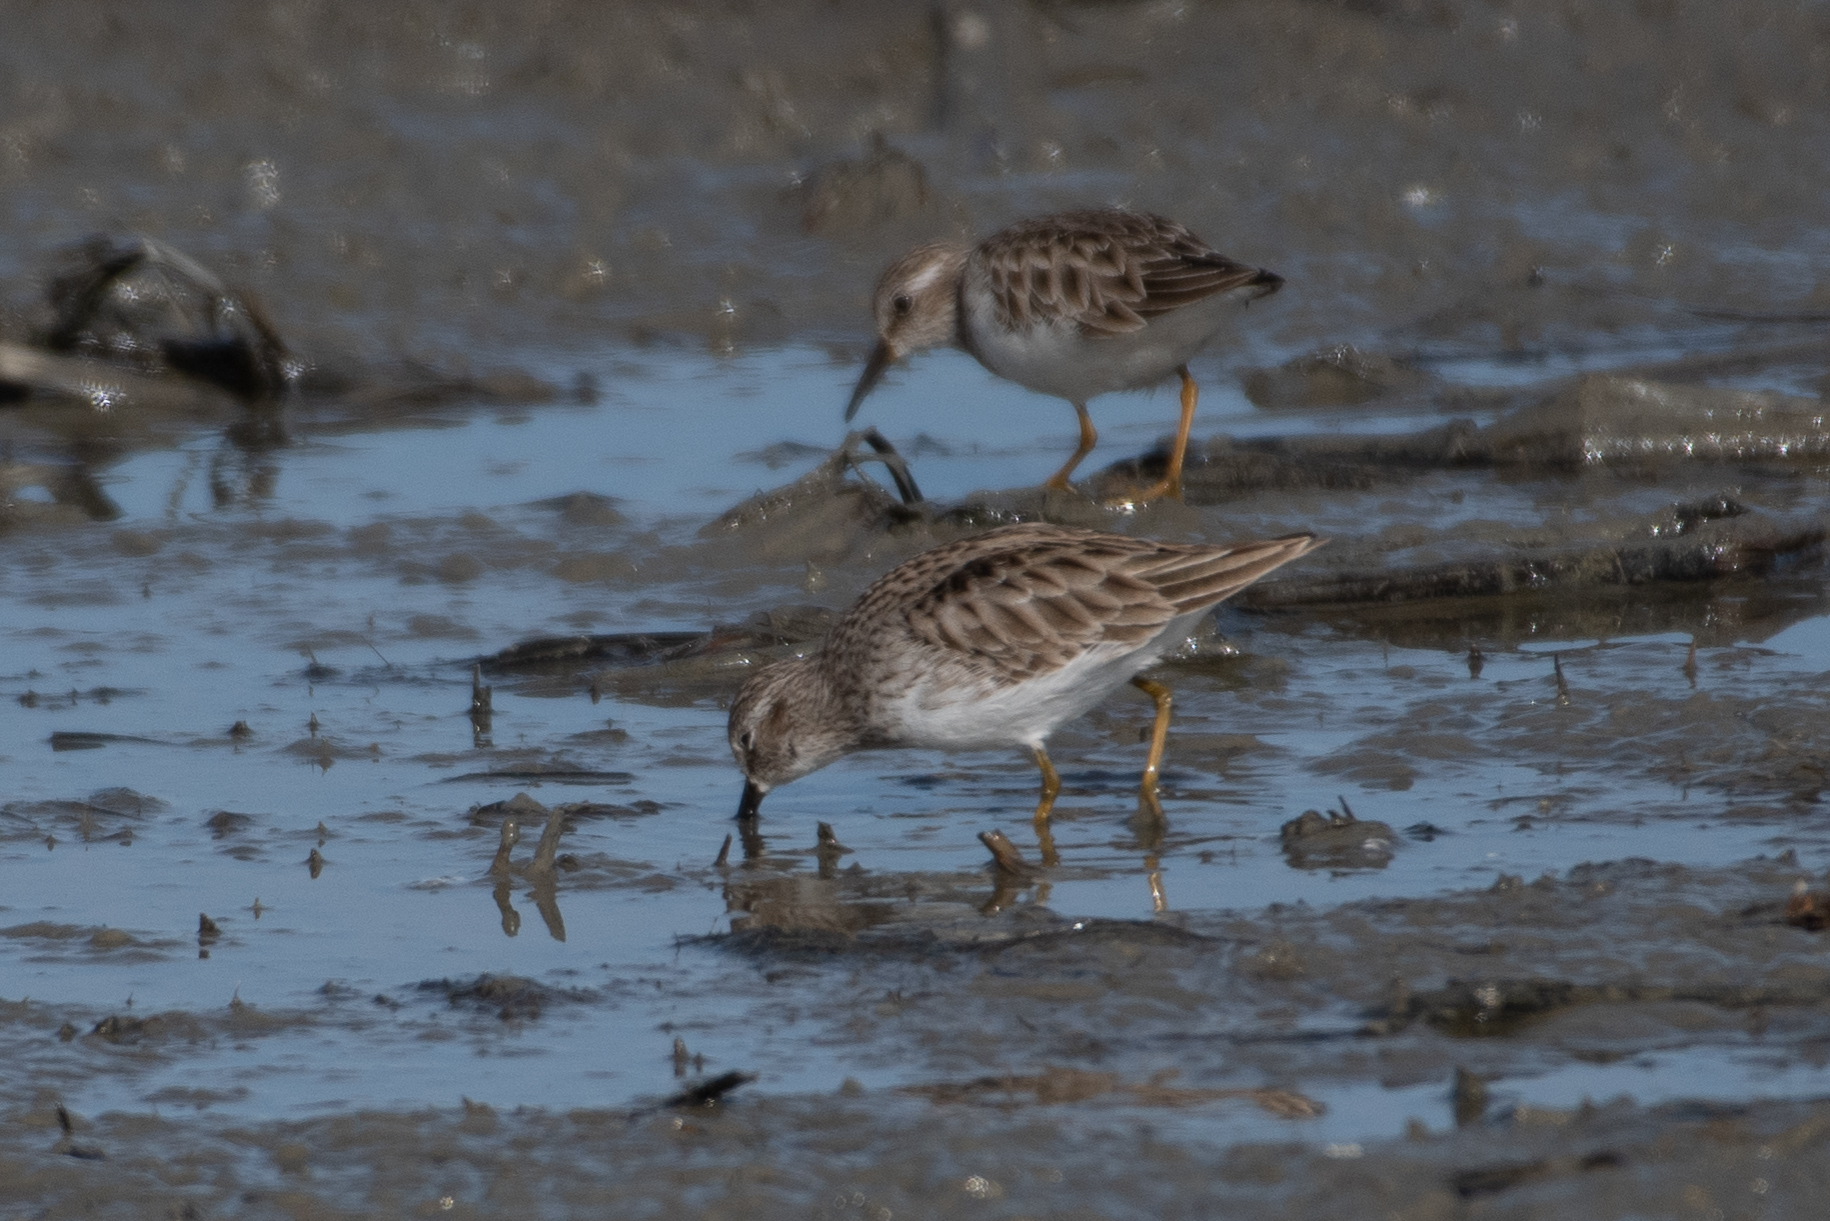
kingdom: Animalia
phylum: Chordata
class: Aves
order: Charadriiformes
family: Scolopacidae
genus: Calidris
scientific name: Calidris minutilla
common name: Least sandpiper
